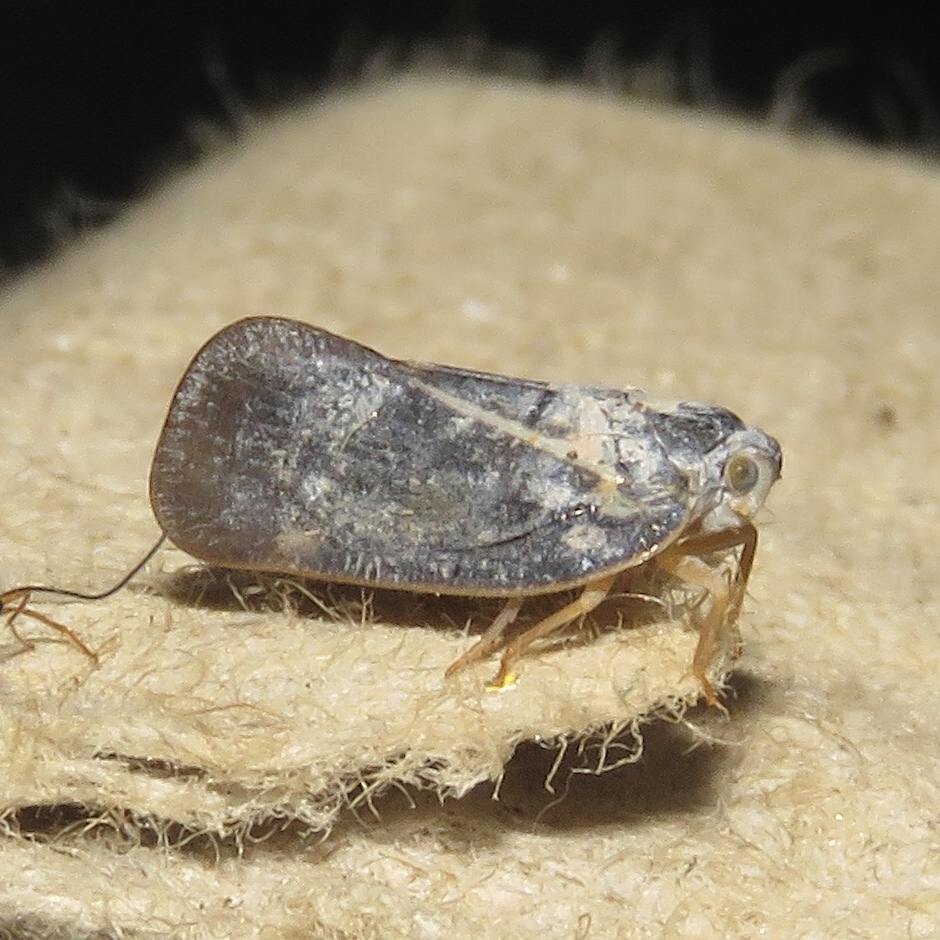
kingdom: Animalia
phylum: Arthropoda
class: Insecta
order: Hemiptera
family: Flatidae
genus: Metcalfa
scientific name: Metcalfa pruinosa
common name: Citrus flatid planthopper
